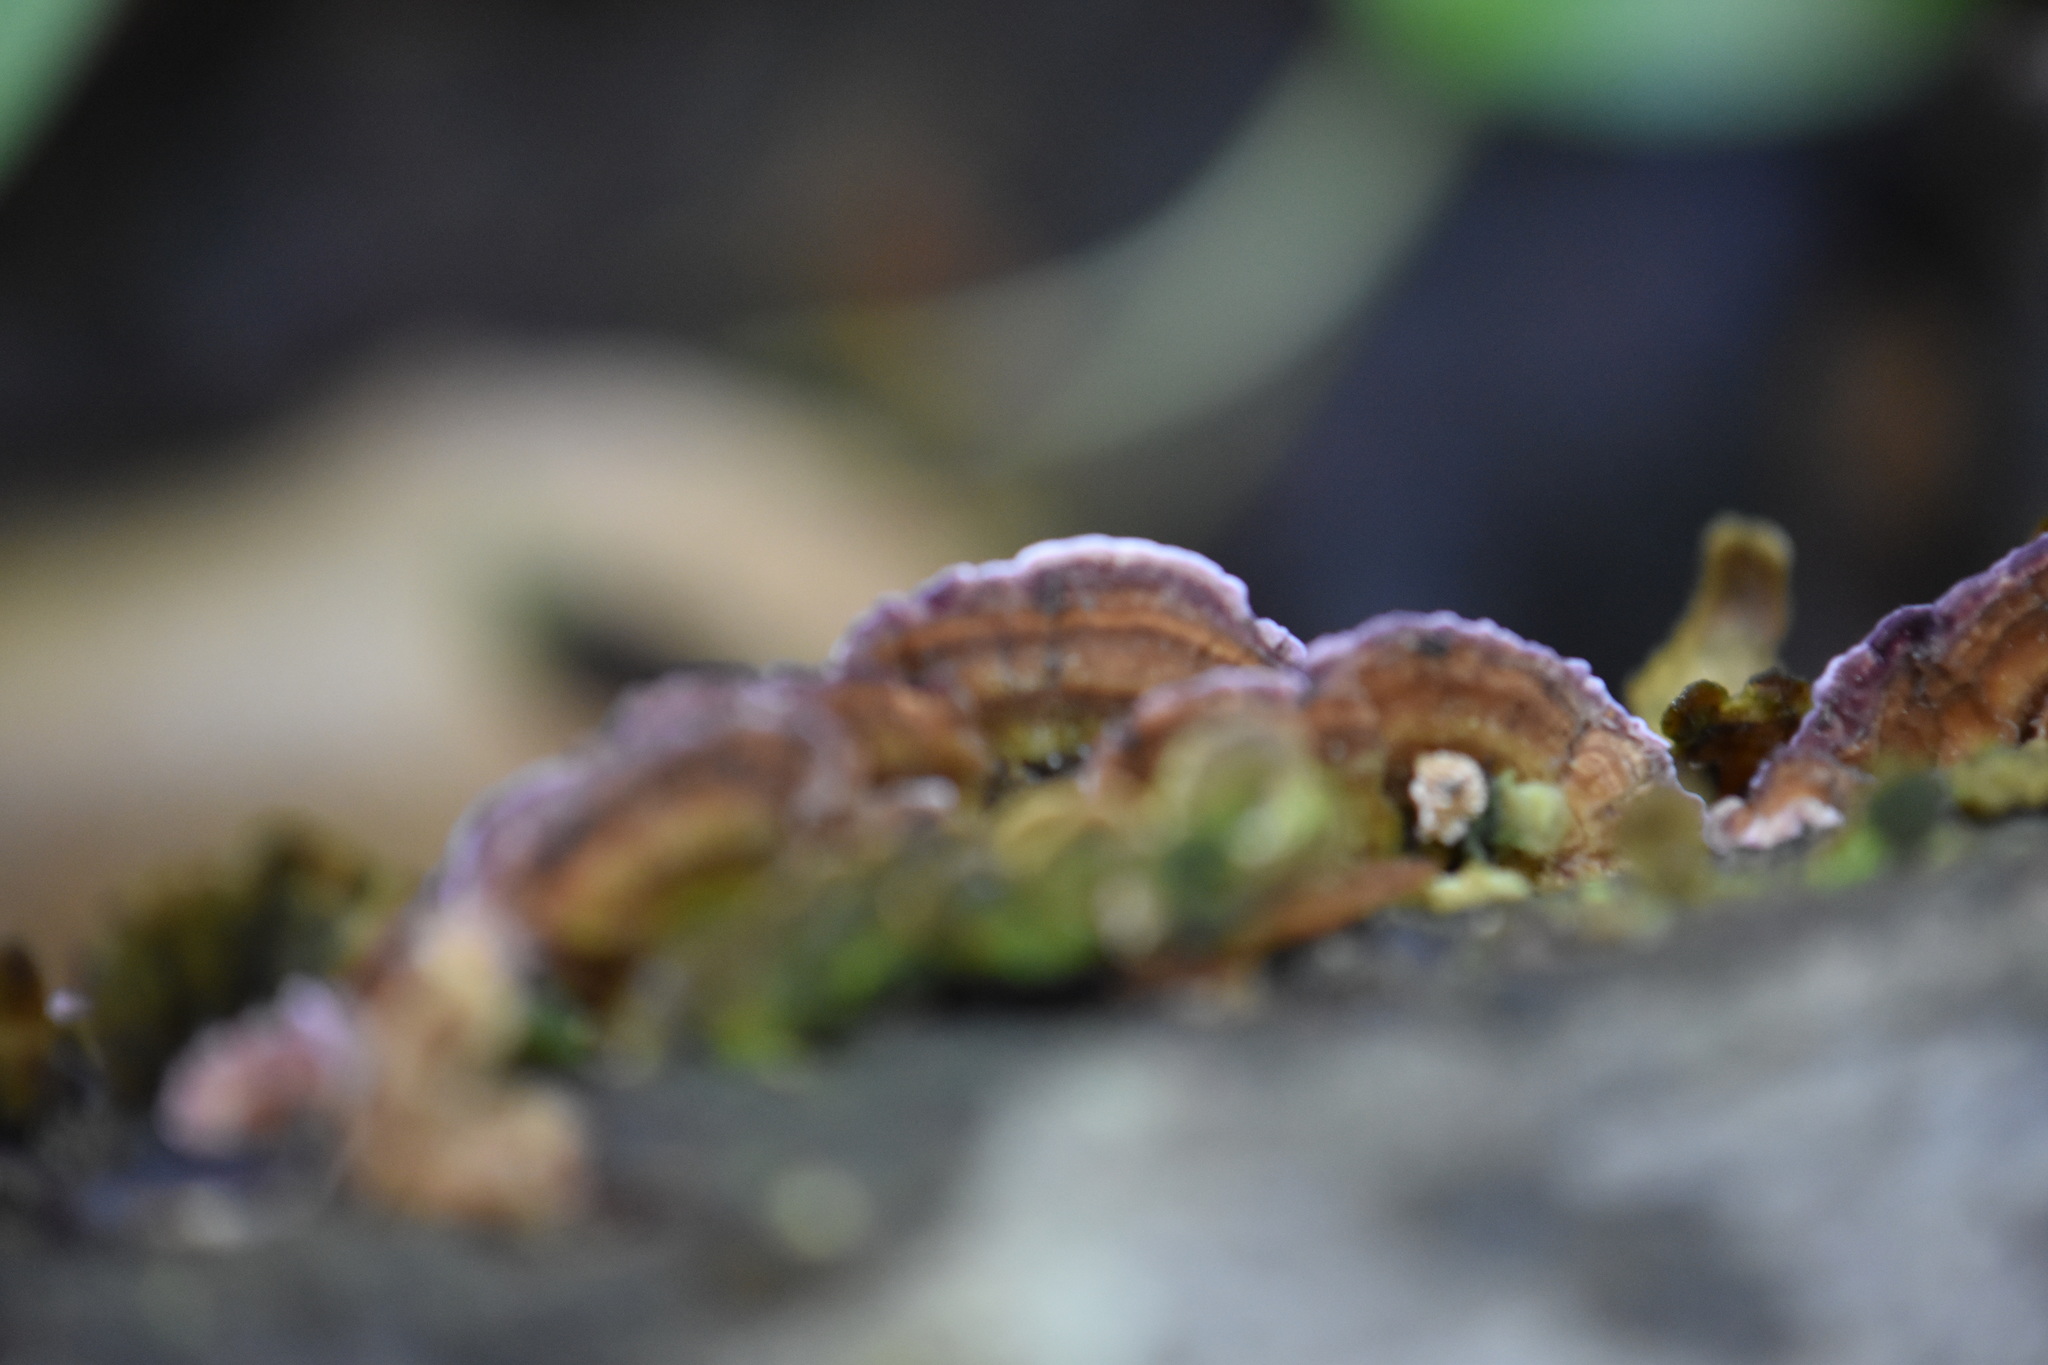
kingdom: Fungi
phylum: Basidiomycota
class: Agaricomycetes
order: Hymenochaetales
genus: Trichaptum
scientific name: Trichaptum biforme
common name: Violet-toothed polypore
